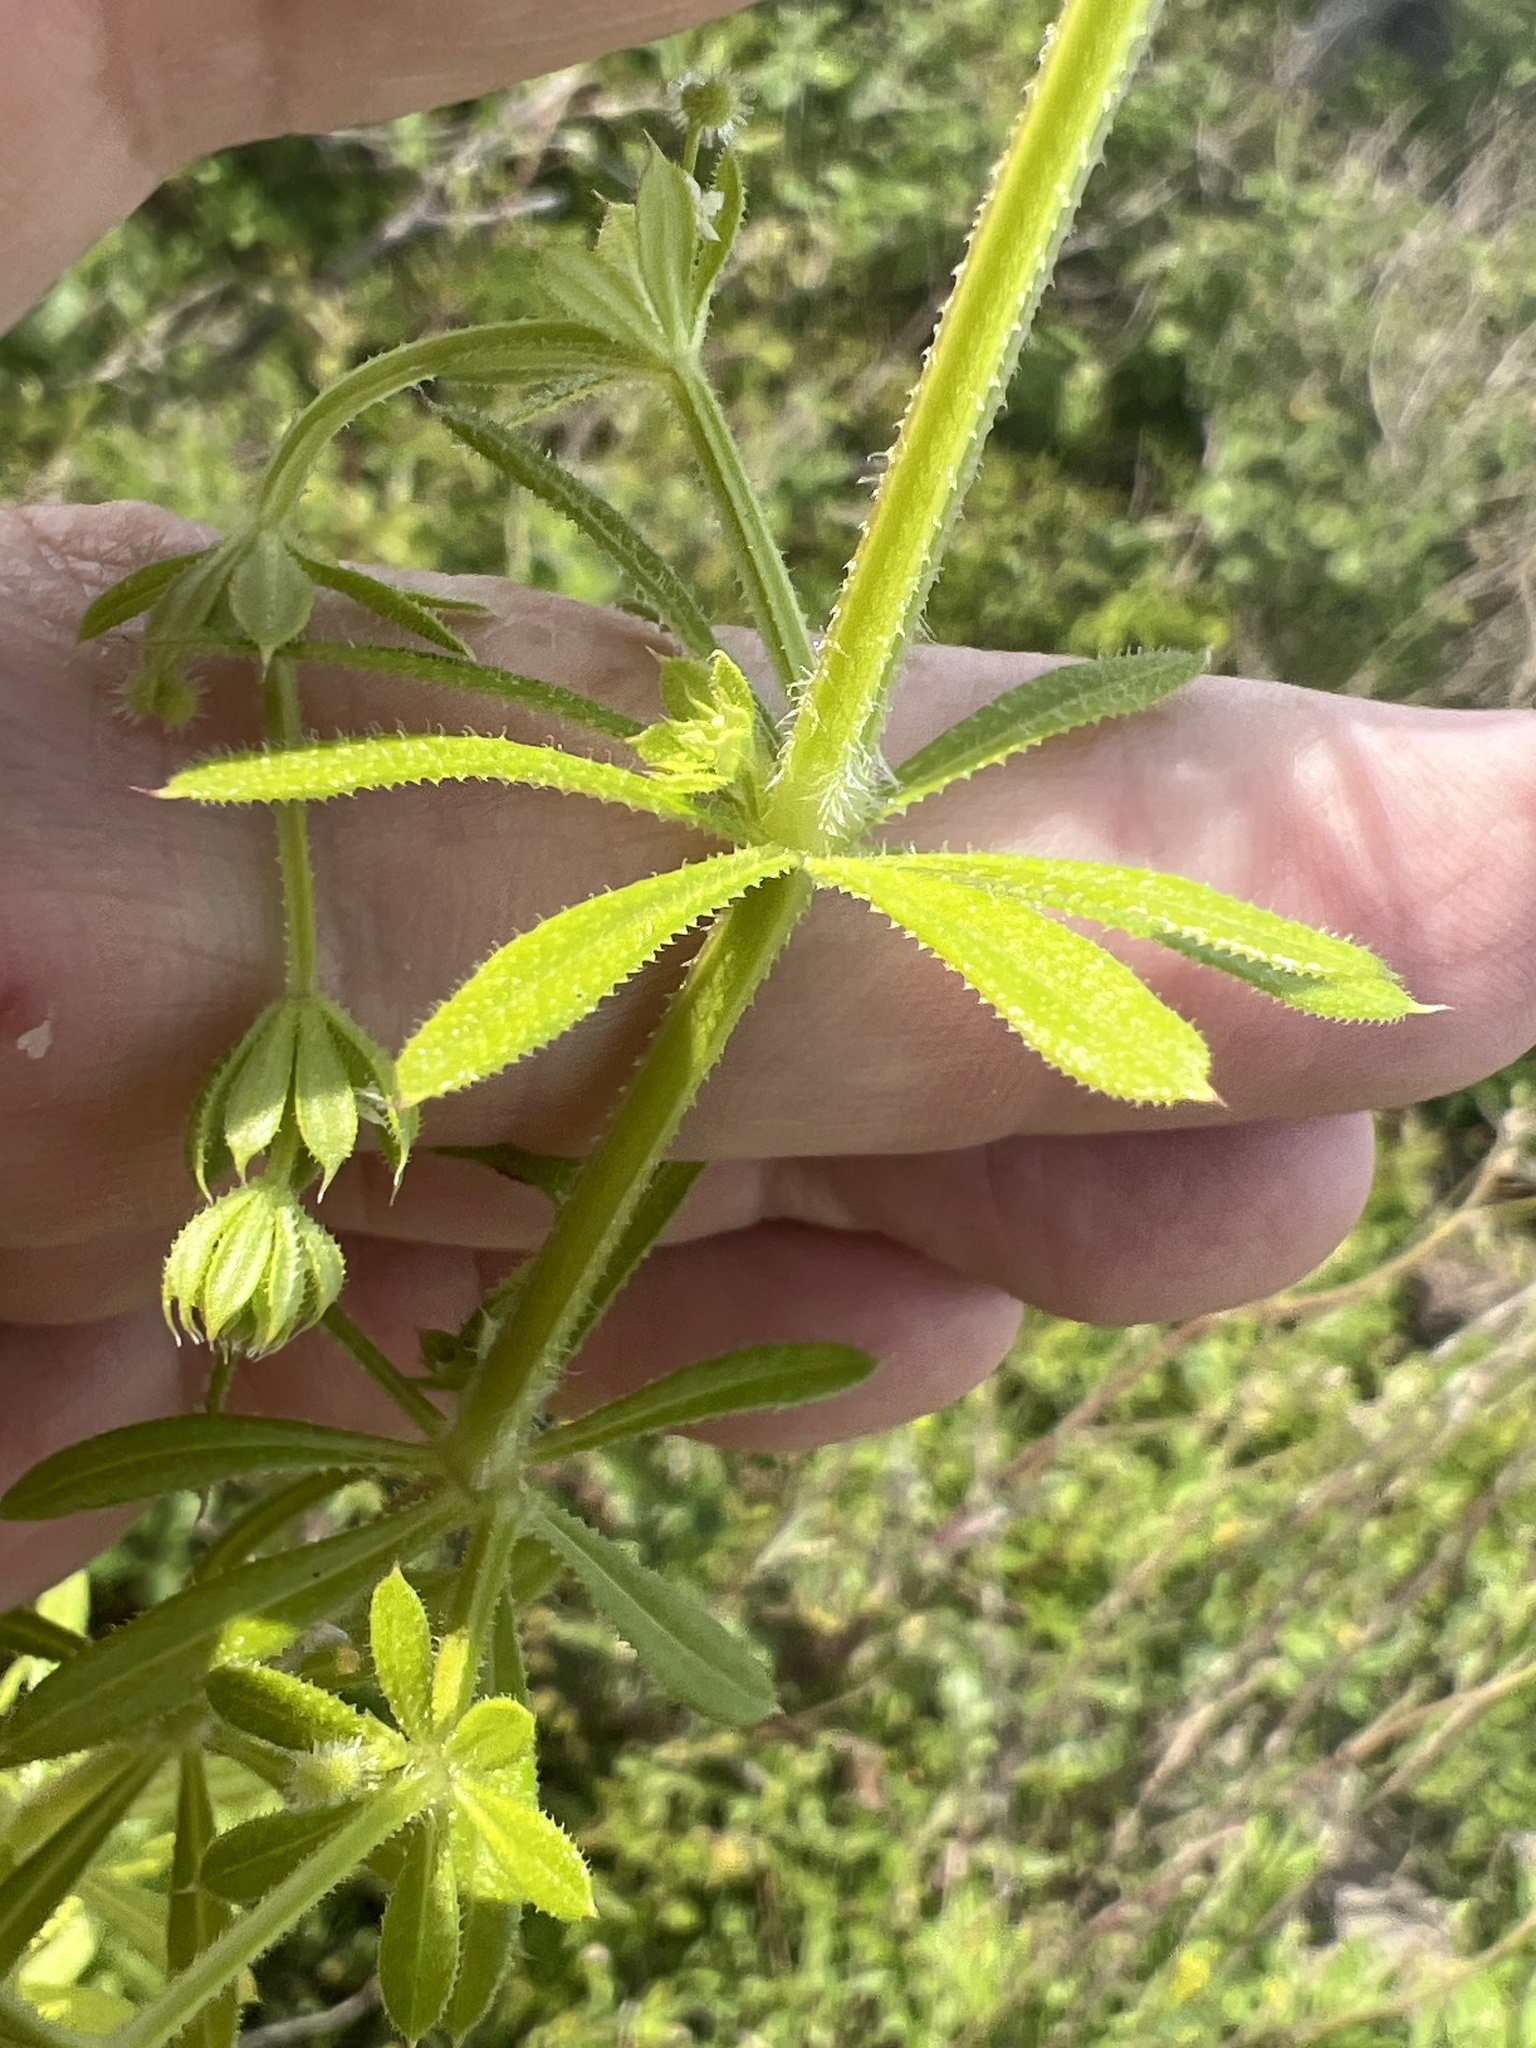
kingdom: Plantae
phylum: Tracheophyta
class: Magnoliopsida
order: Gentianales
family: Rubiaceae
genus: Galium
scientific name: Galium aparine
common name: Cleavers
